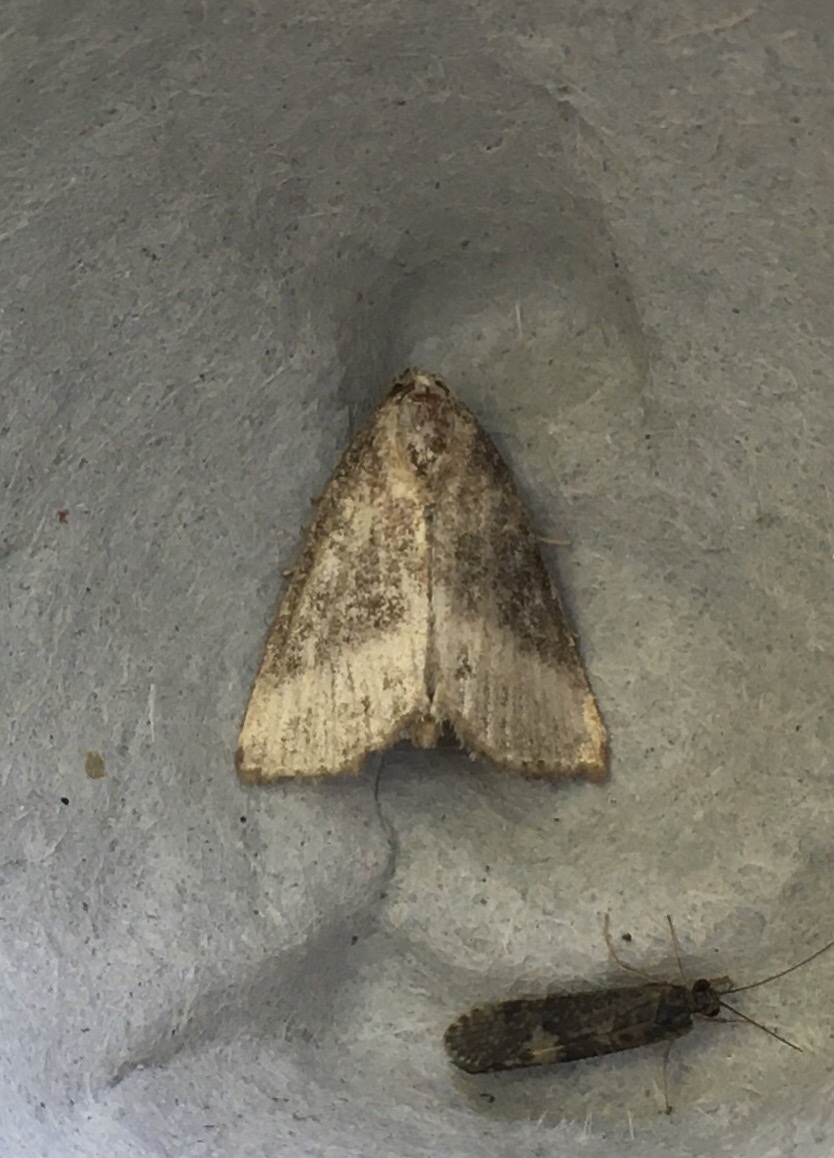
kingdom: Animalia
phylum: Arthropoda
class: Insecta
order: Lepidoptera
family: Noctuidae
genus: Ogdoconta
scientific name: Ogdoconta cinereola
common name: Common pinkband
